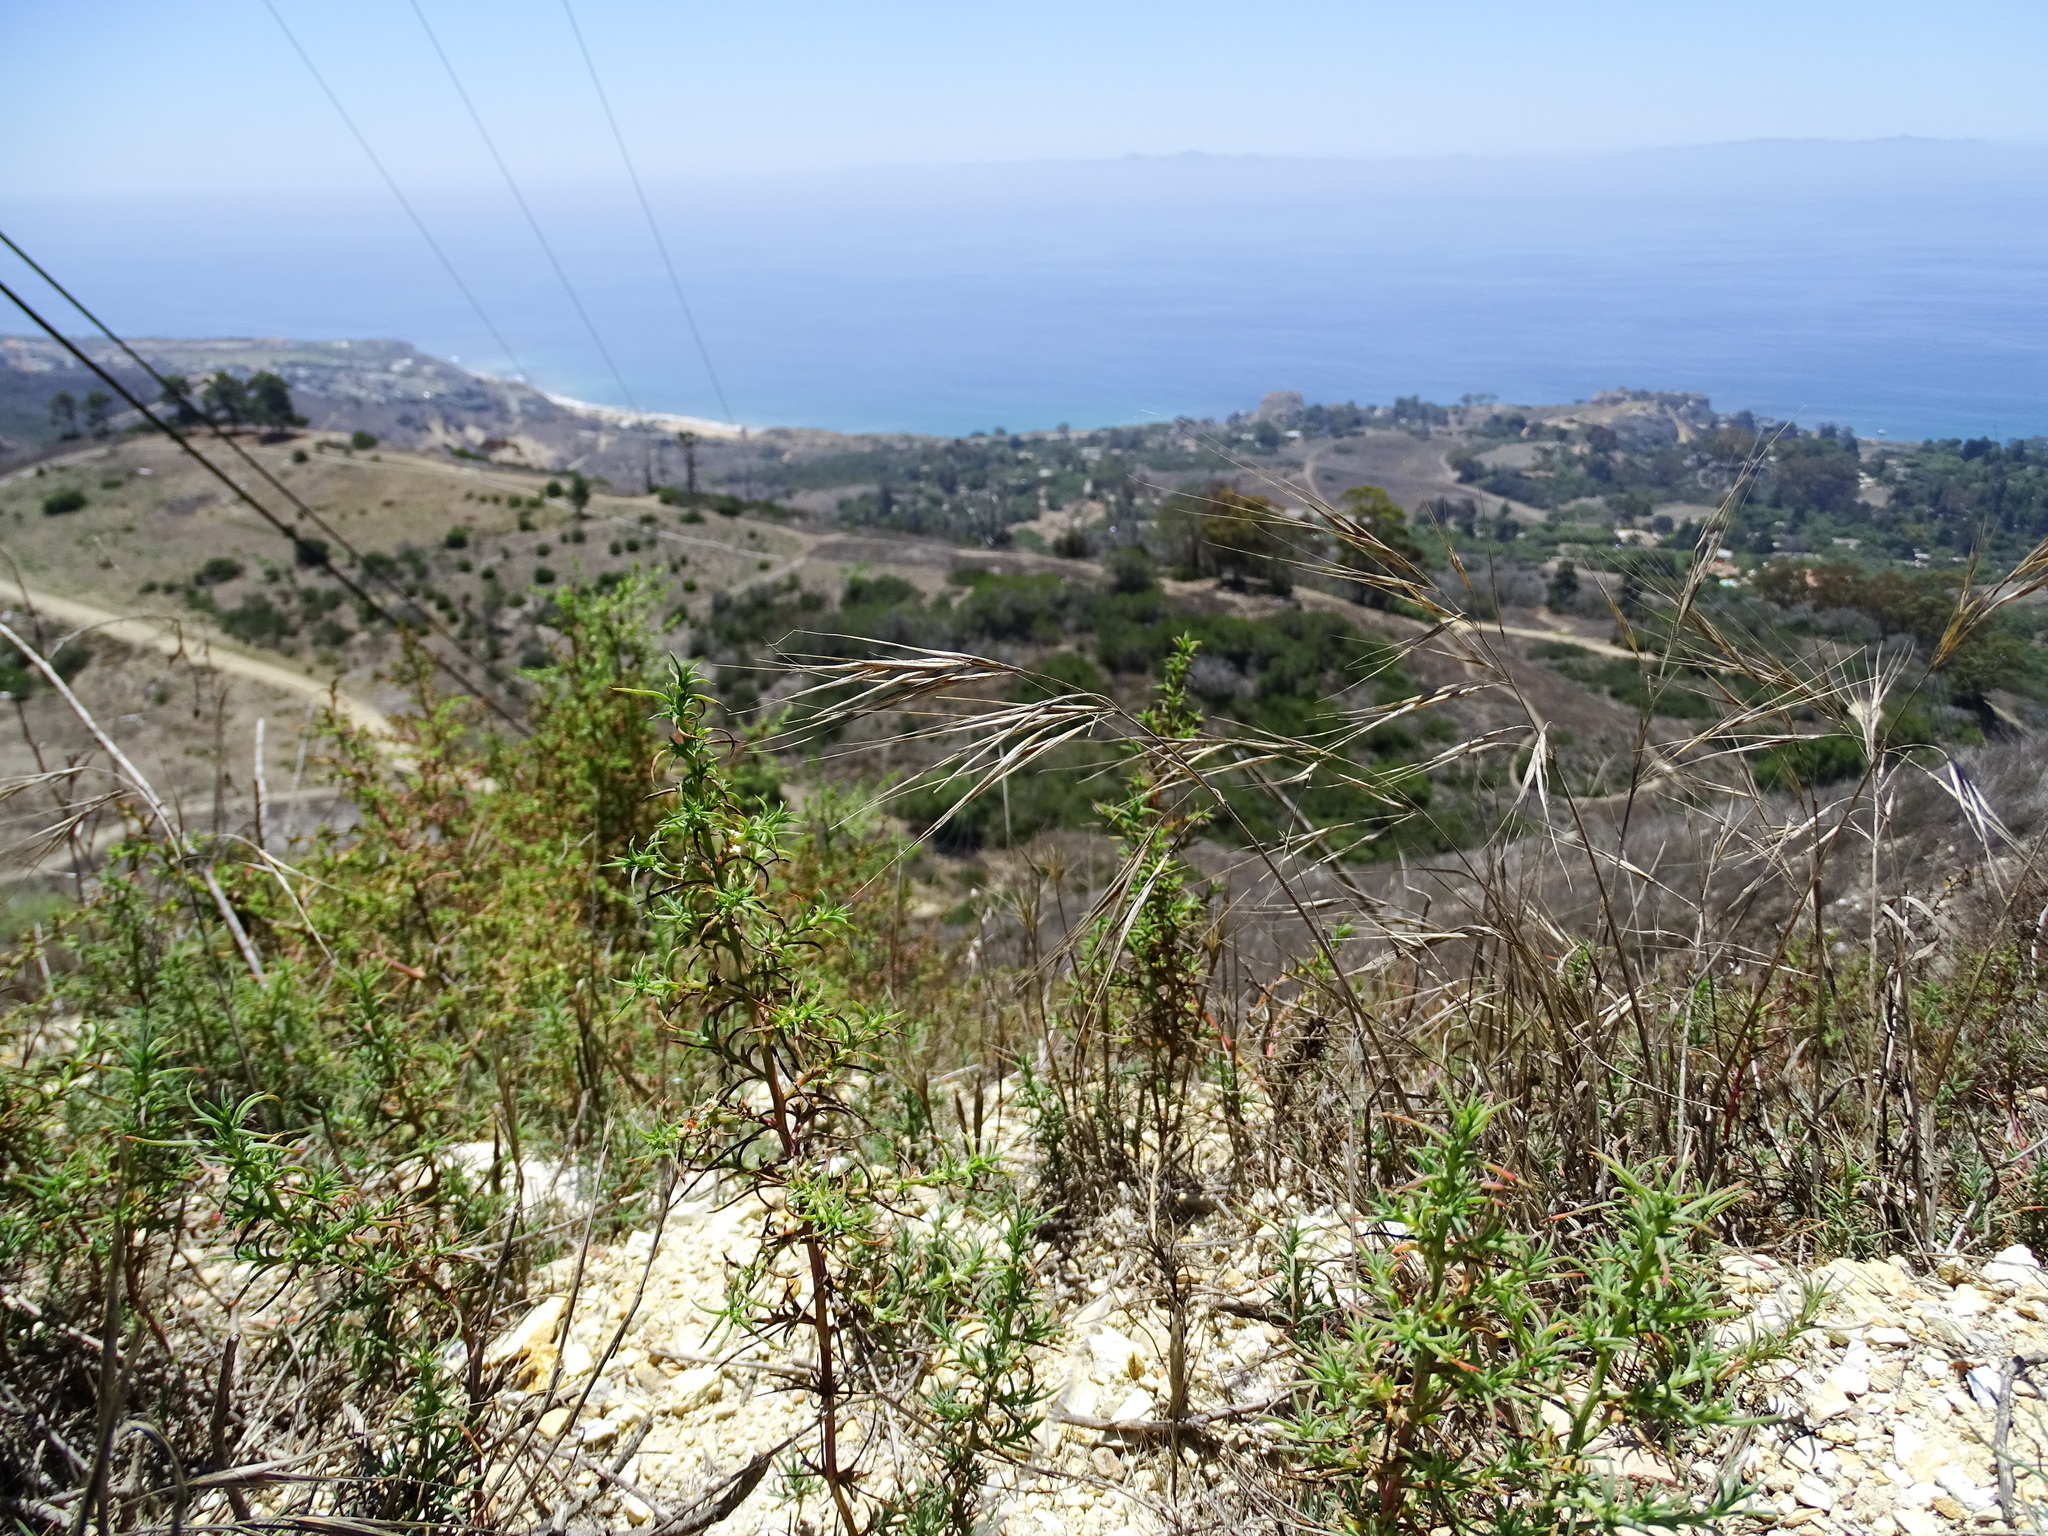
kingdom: Plantae
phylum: Tracheophyta
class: Liliopsida
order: Poales
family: Poaceae
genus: Bromus
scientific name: Bromus diandrus
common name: Ripgut brome
